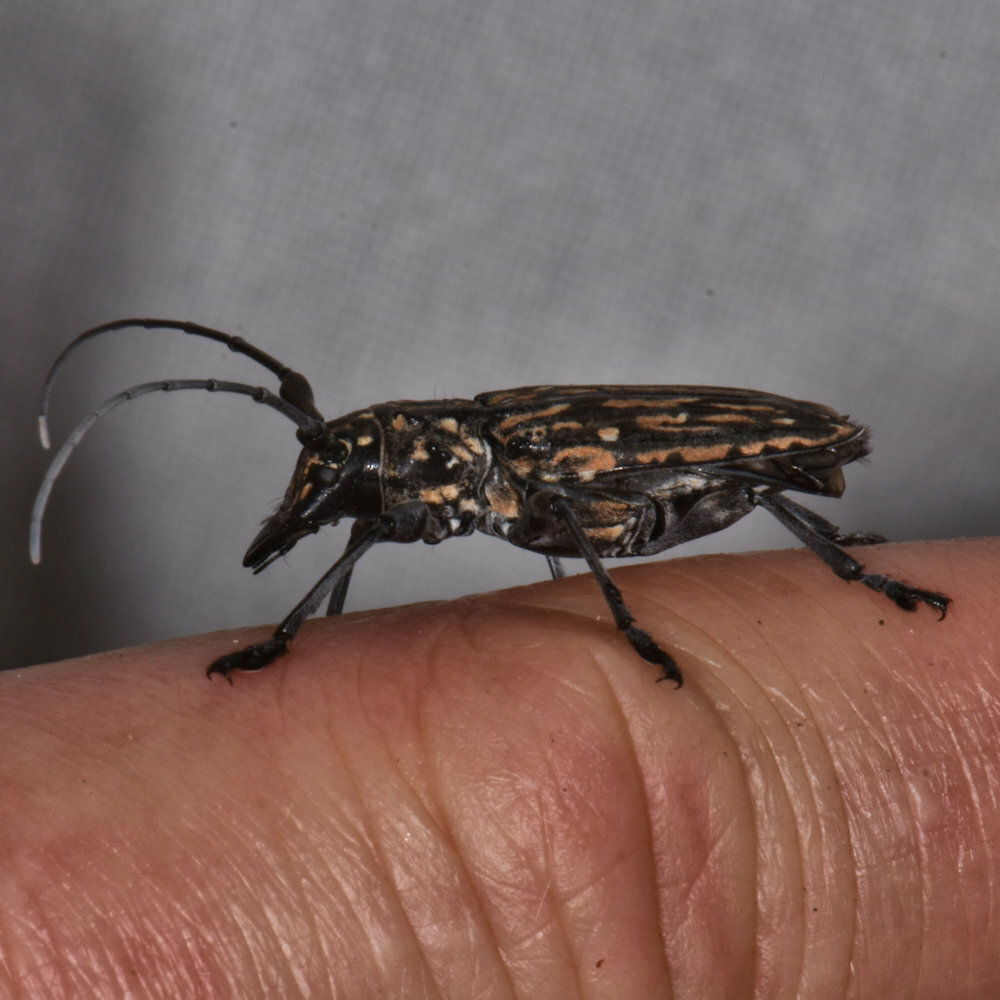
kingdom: Animalia
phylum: Arthropoda
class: Insecta
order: Coleoptera
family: Cerambycidae
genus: Steirastoma
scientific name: Steirastoma histrionicum
